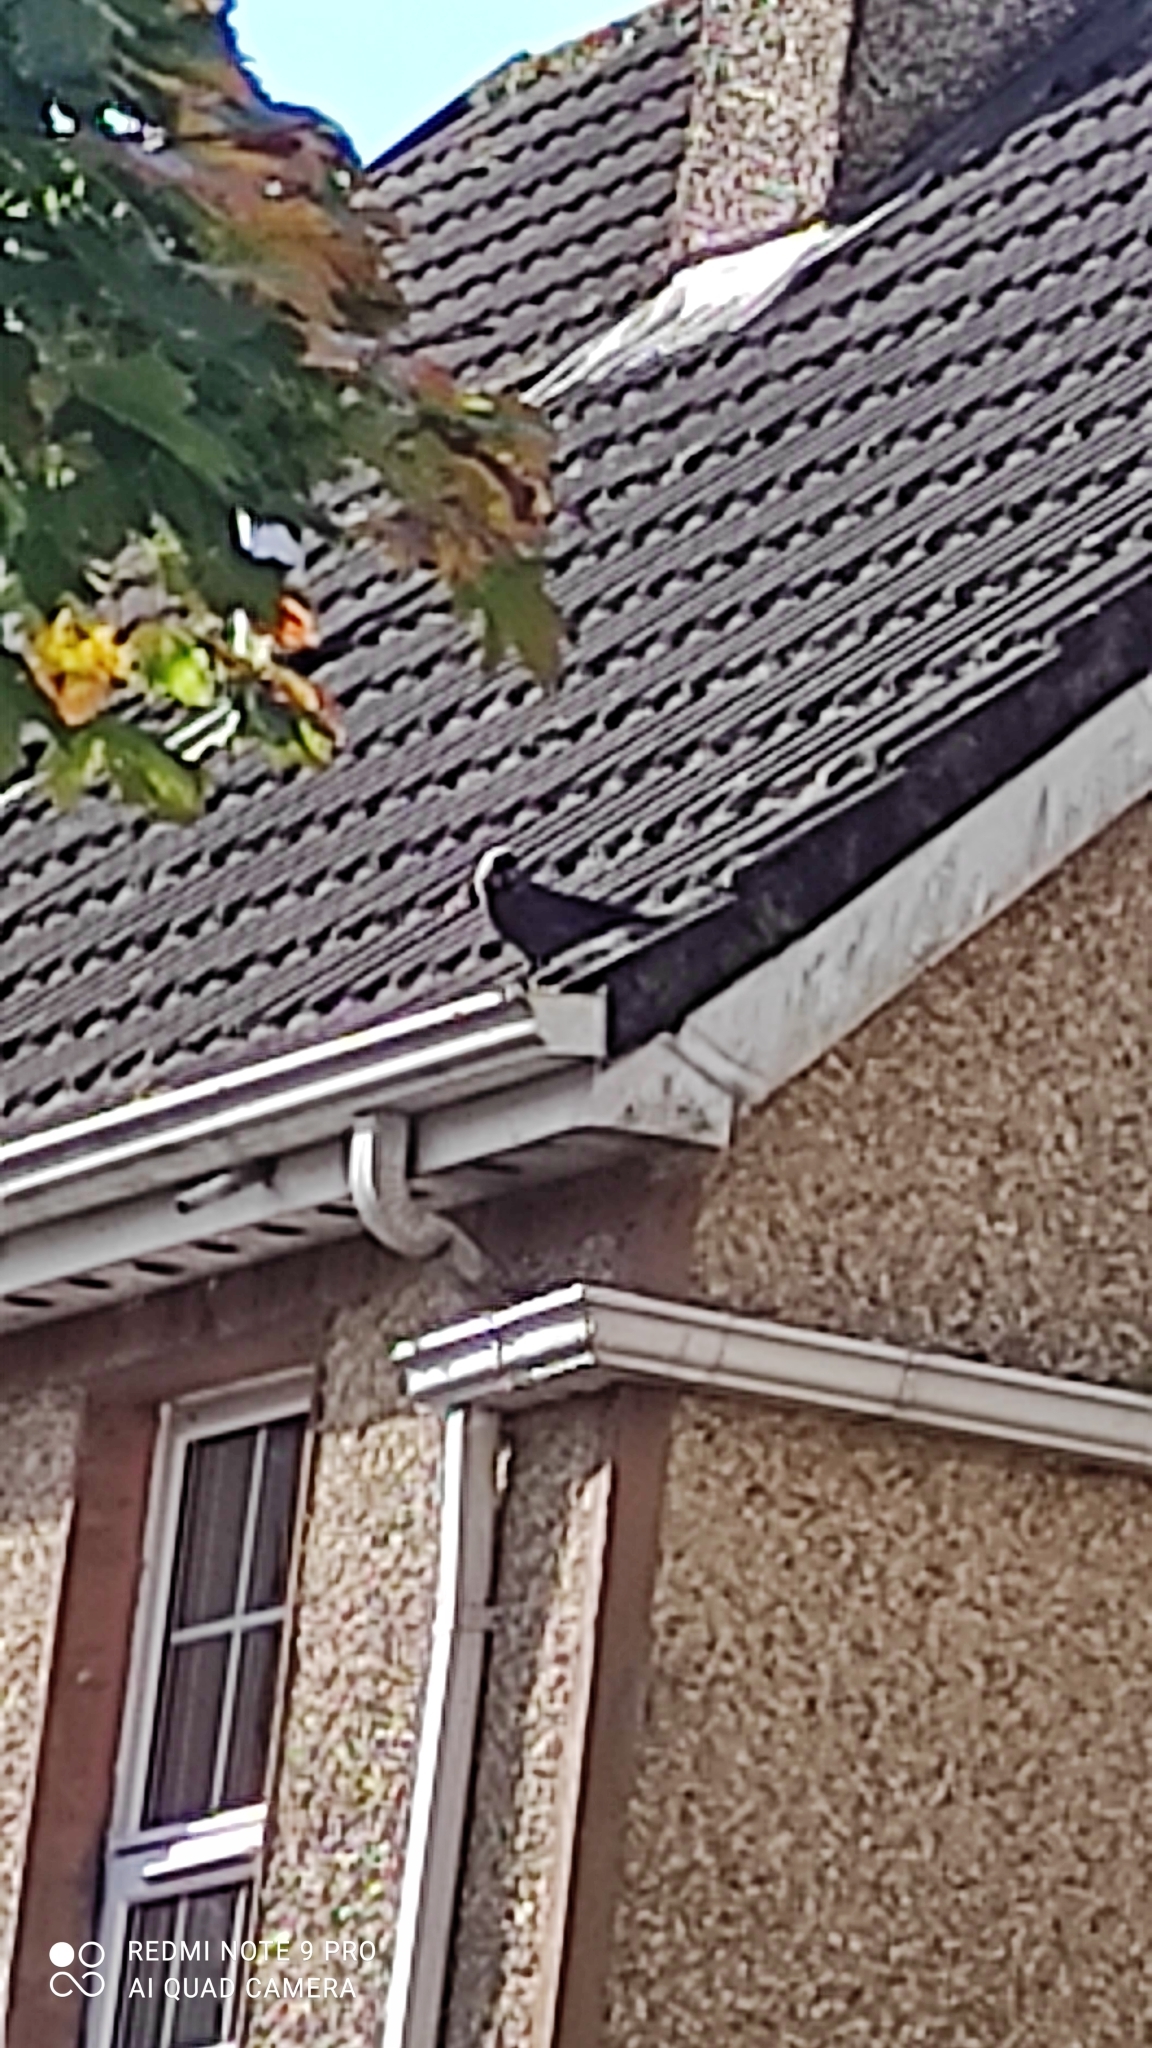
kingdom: Animalia
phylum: Chordata
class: Aves
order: Passeriformes
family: Corvidae
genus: Coloeus
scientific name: Coloeus monedula
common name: Western jackdaw
